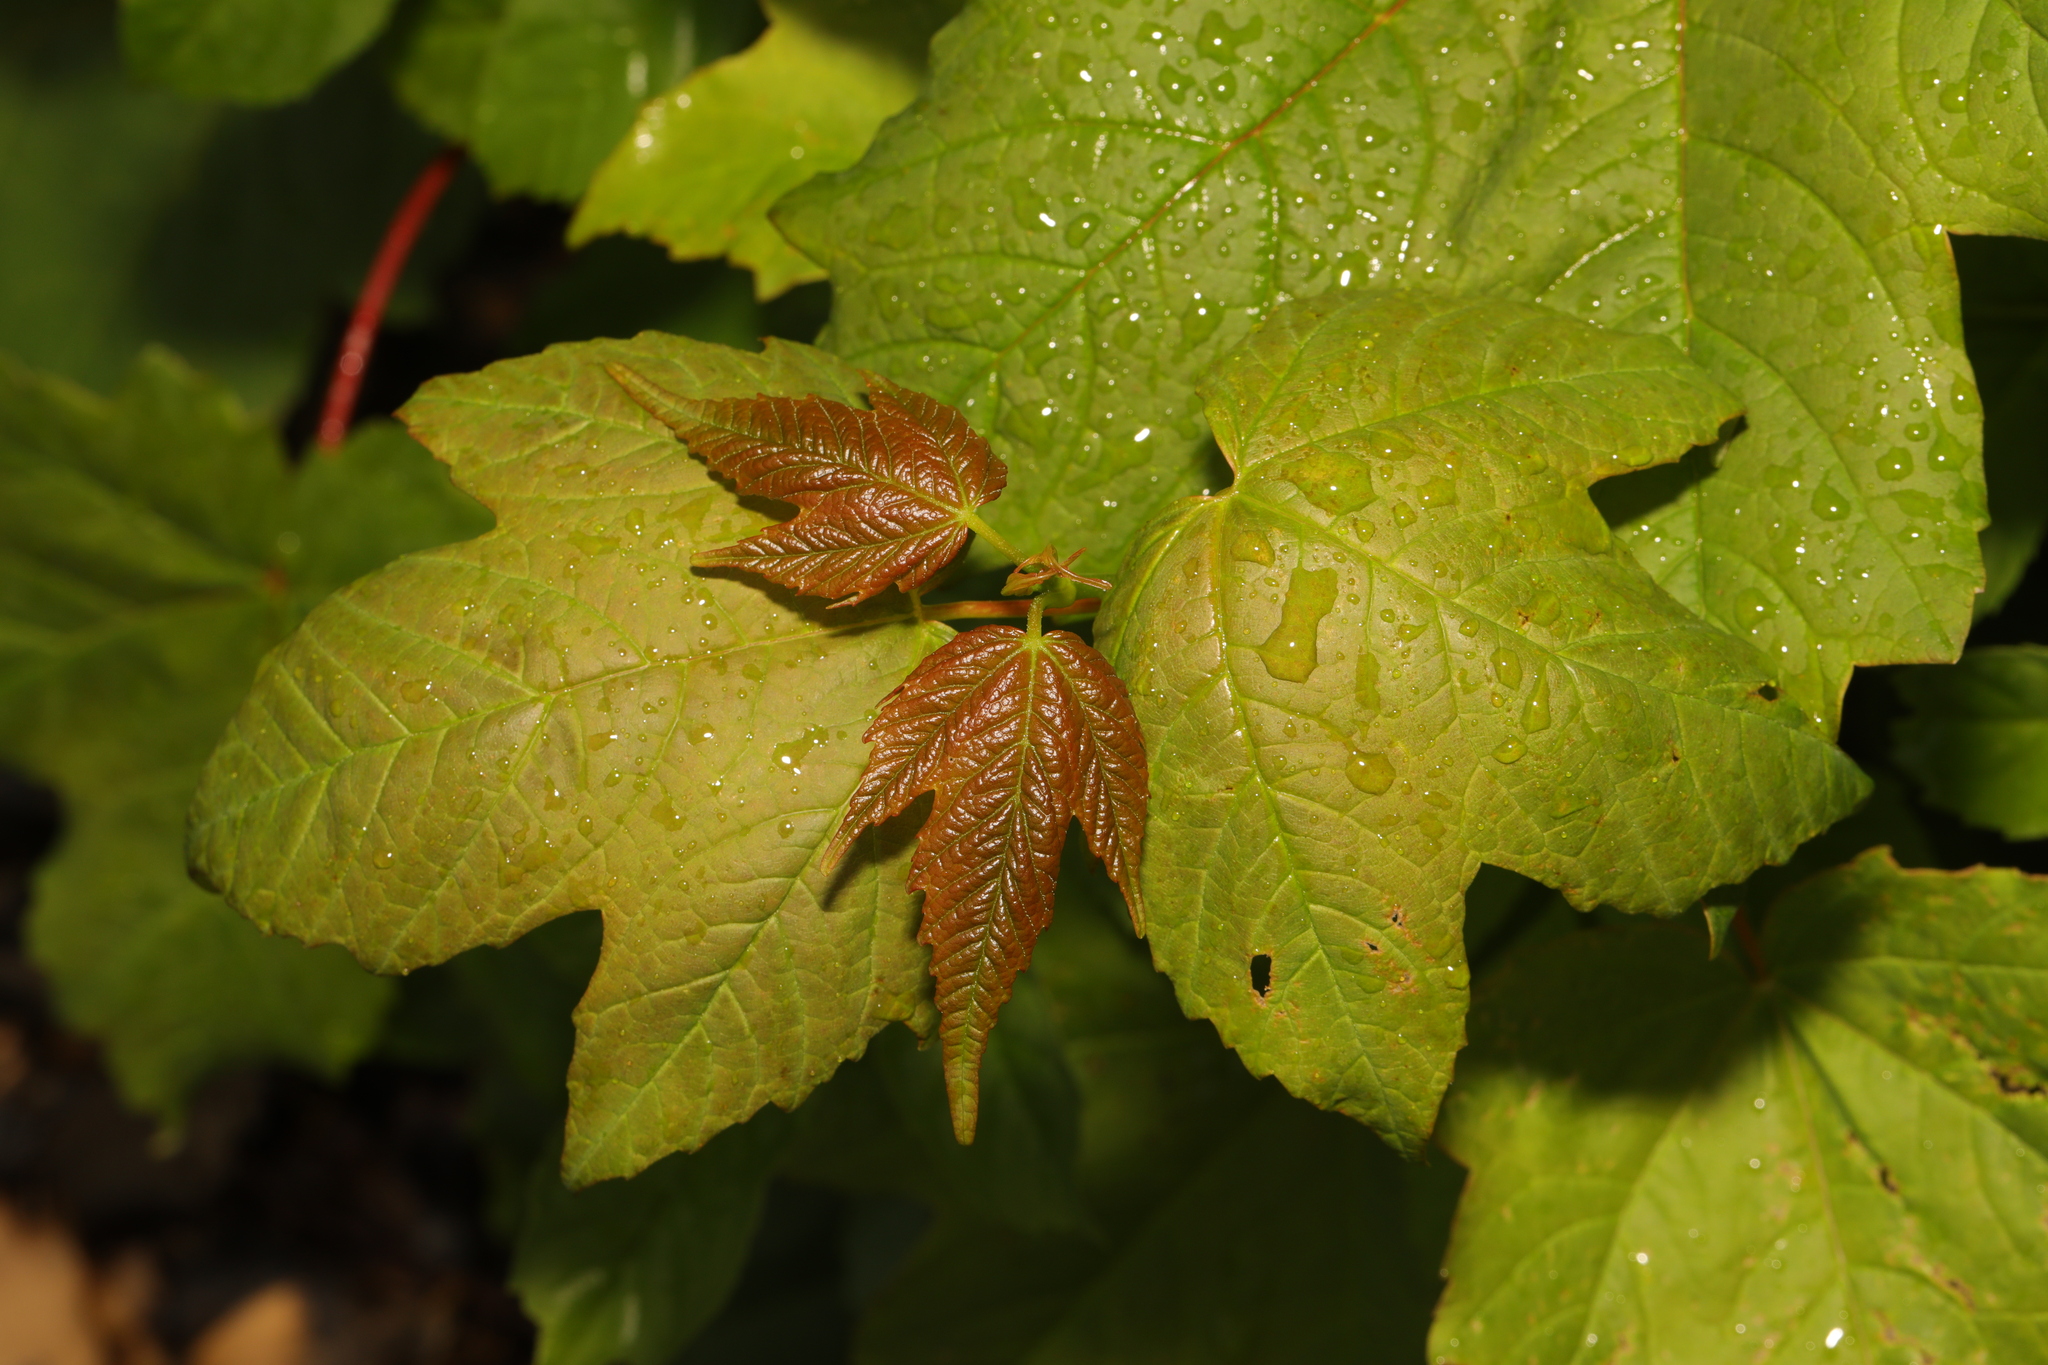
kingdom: Plantae
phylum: Tracheophyta
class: Magnoliopsida
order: Sapindales
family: Sapindaceae
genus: Acer
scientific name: Acer pseudoplatanus
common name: Sycamore
